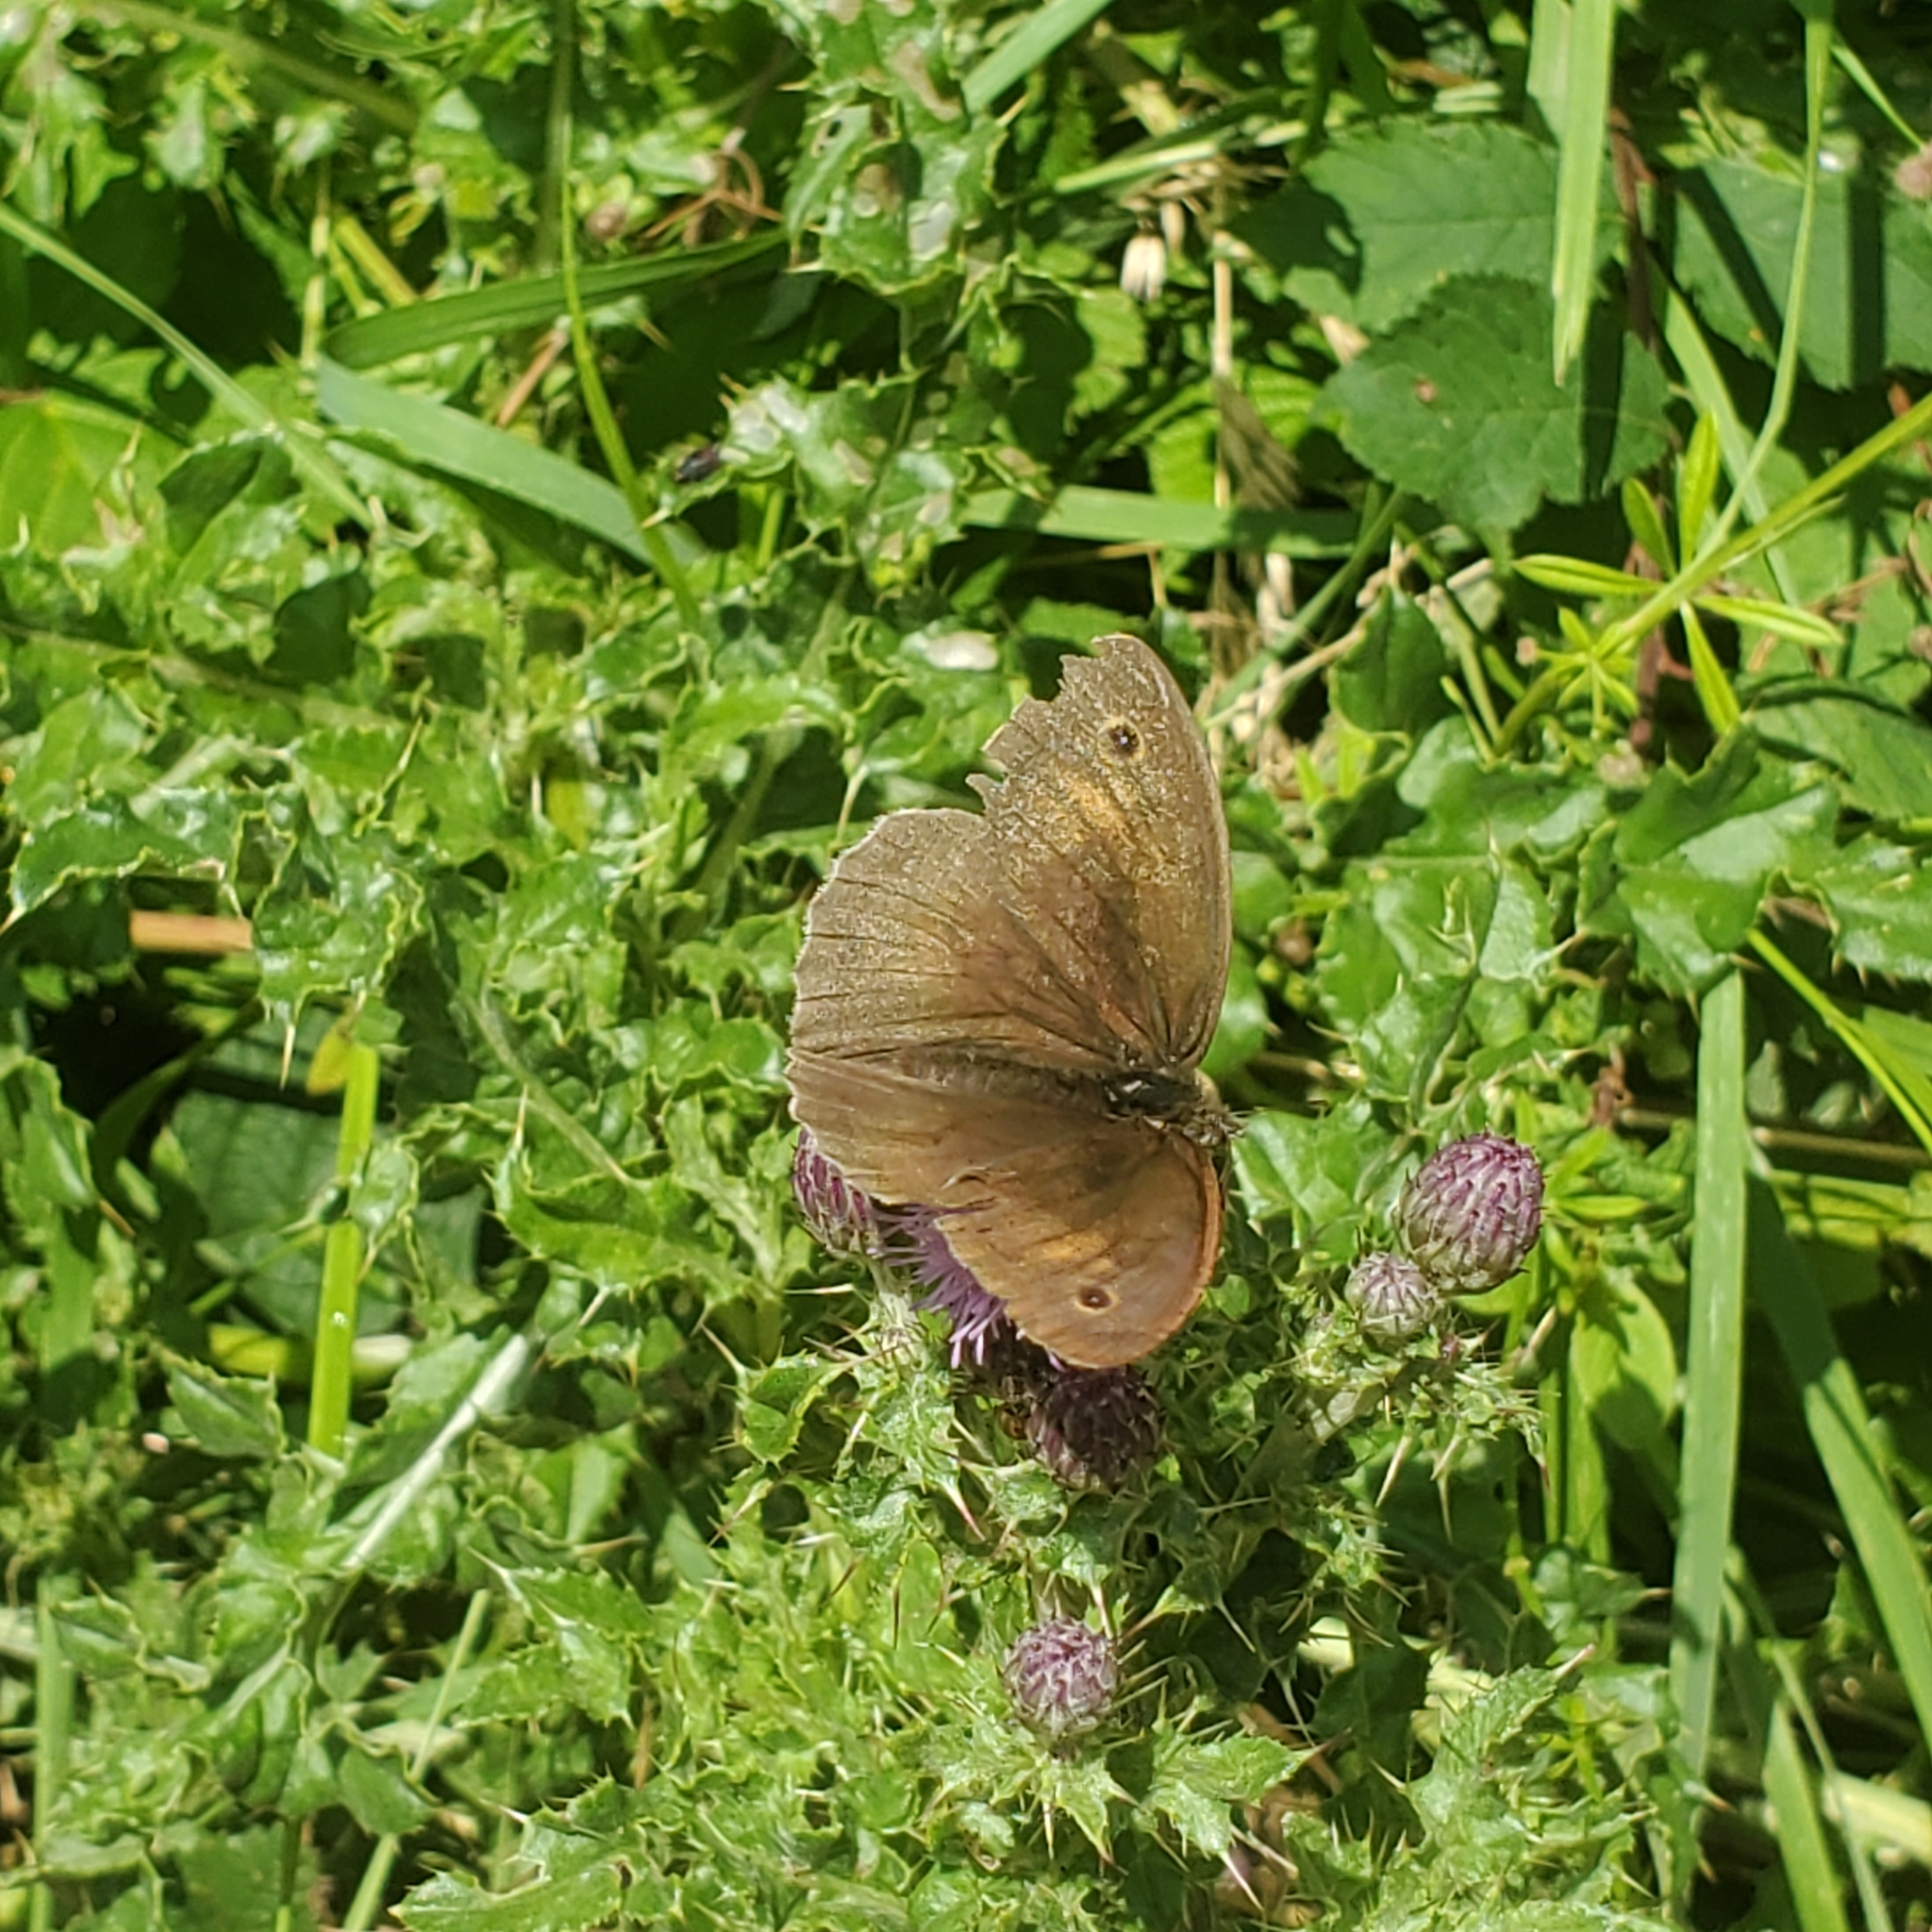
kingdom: Animalia
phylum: Arthropoda
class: Insecta
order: Lepidoptera
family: Nymphalidae
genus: Maniola
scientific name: Maniola jurtina
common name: Meadow brown
